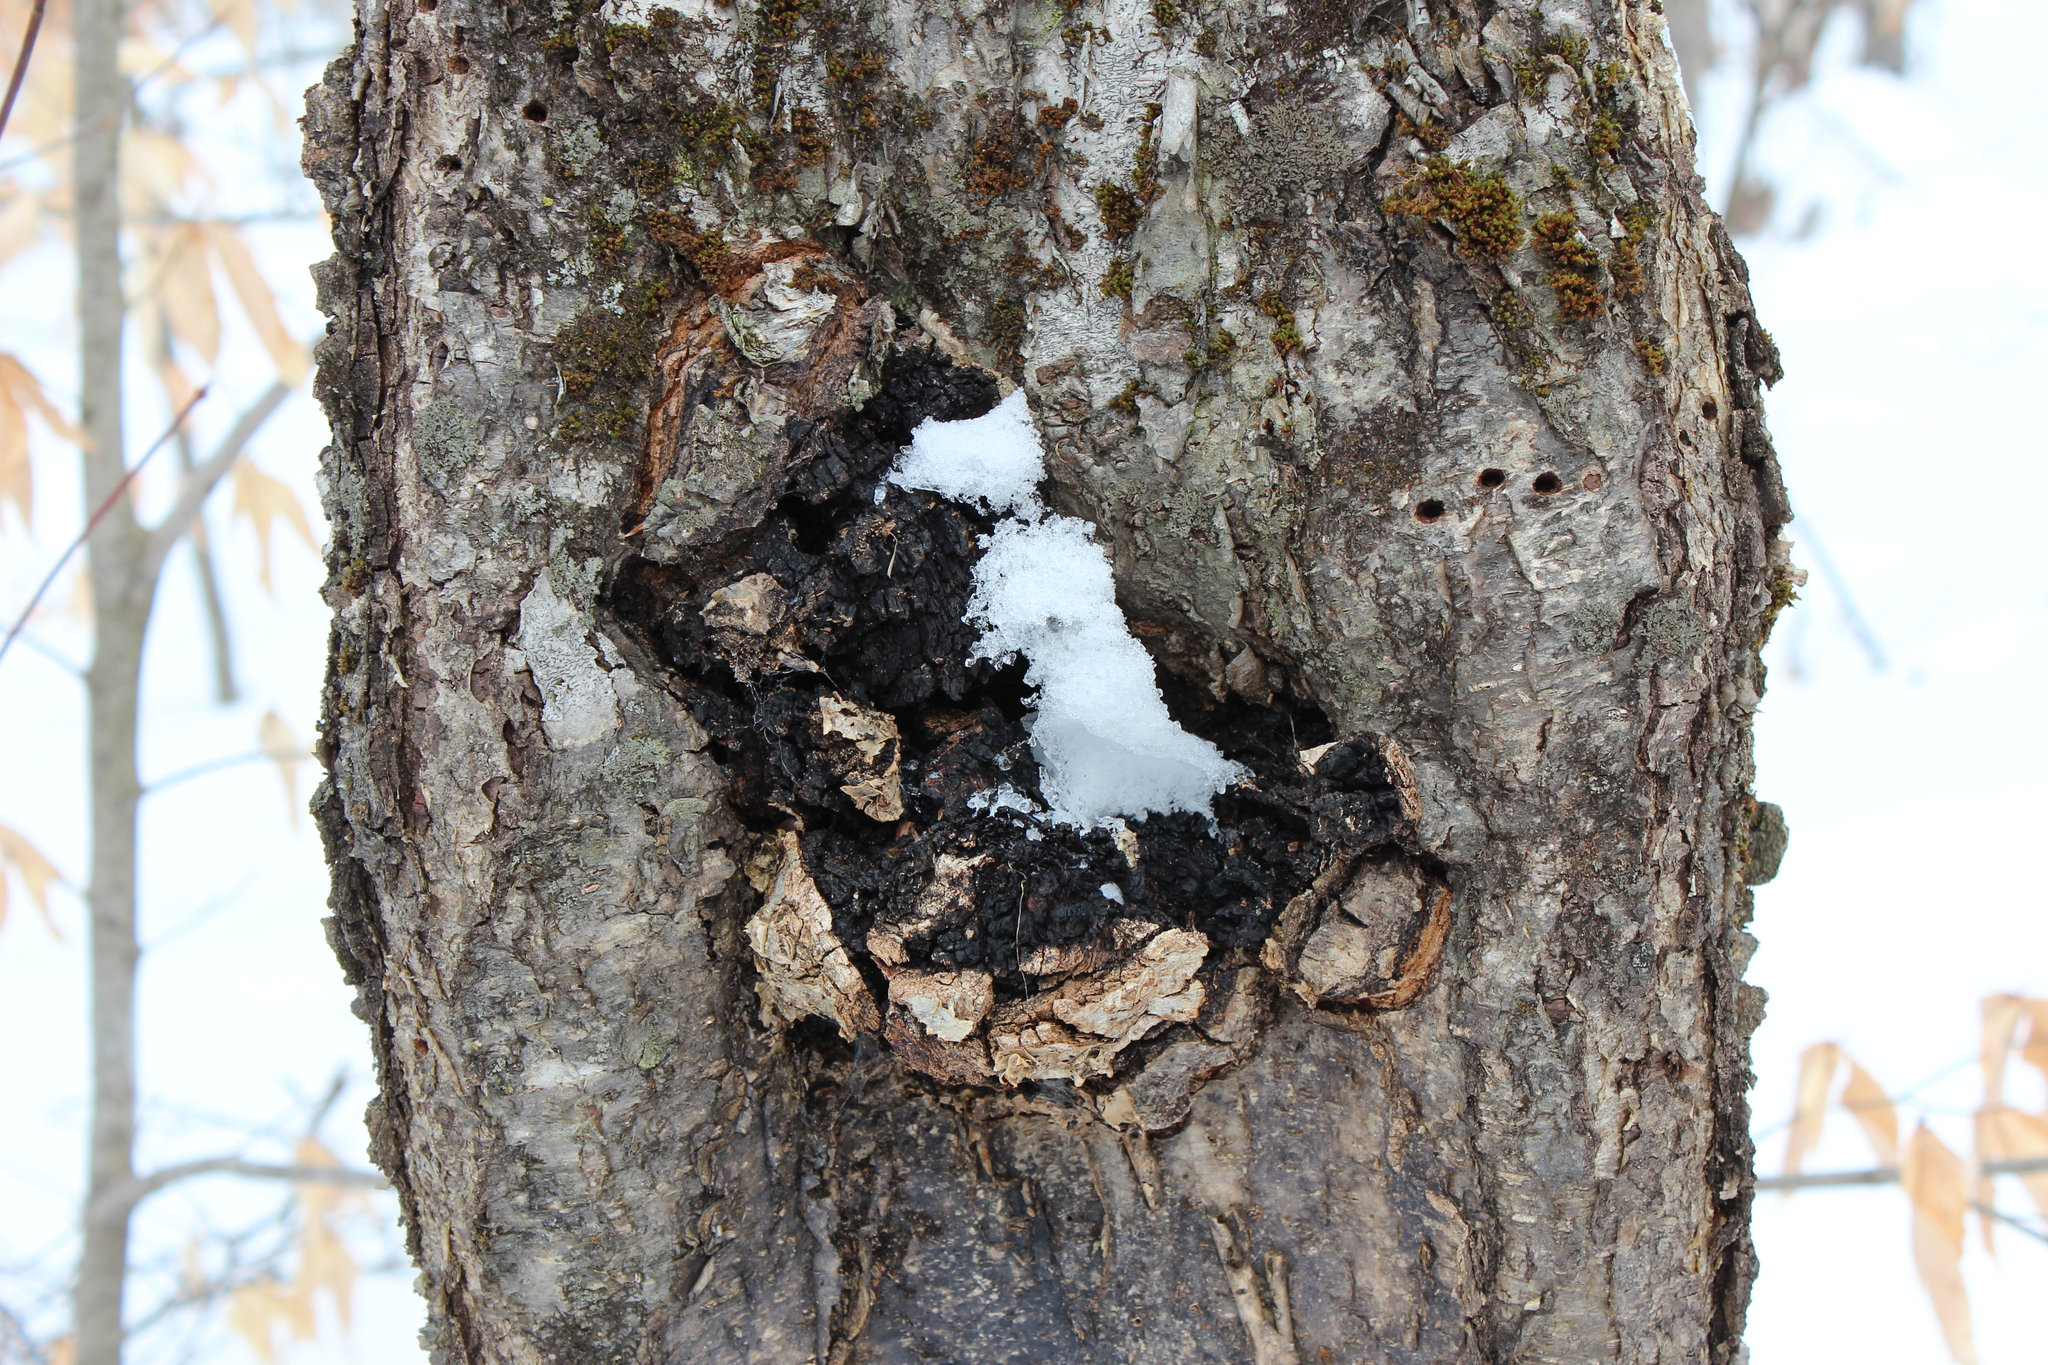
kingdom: Fungi
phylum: Basidiomycota
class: Agaricomycetes
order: Hymenochaetales
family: Hymenochaetaceae
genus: Inonotus
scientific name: Inonotus obliquus
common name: Chaga
